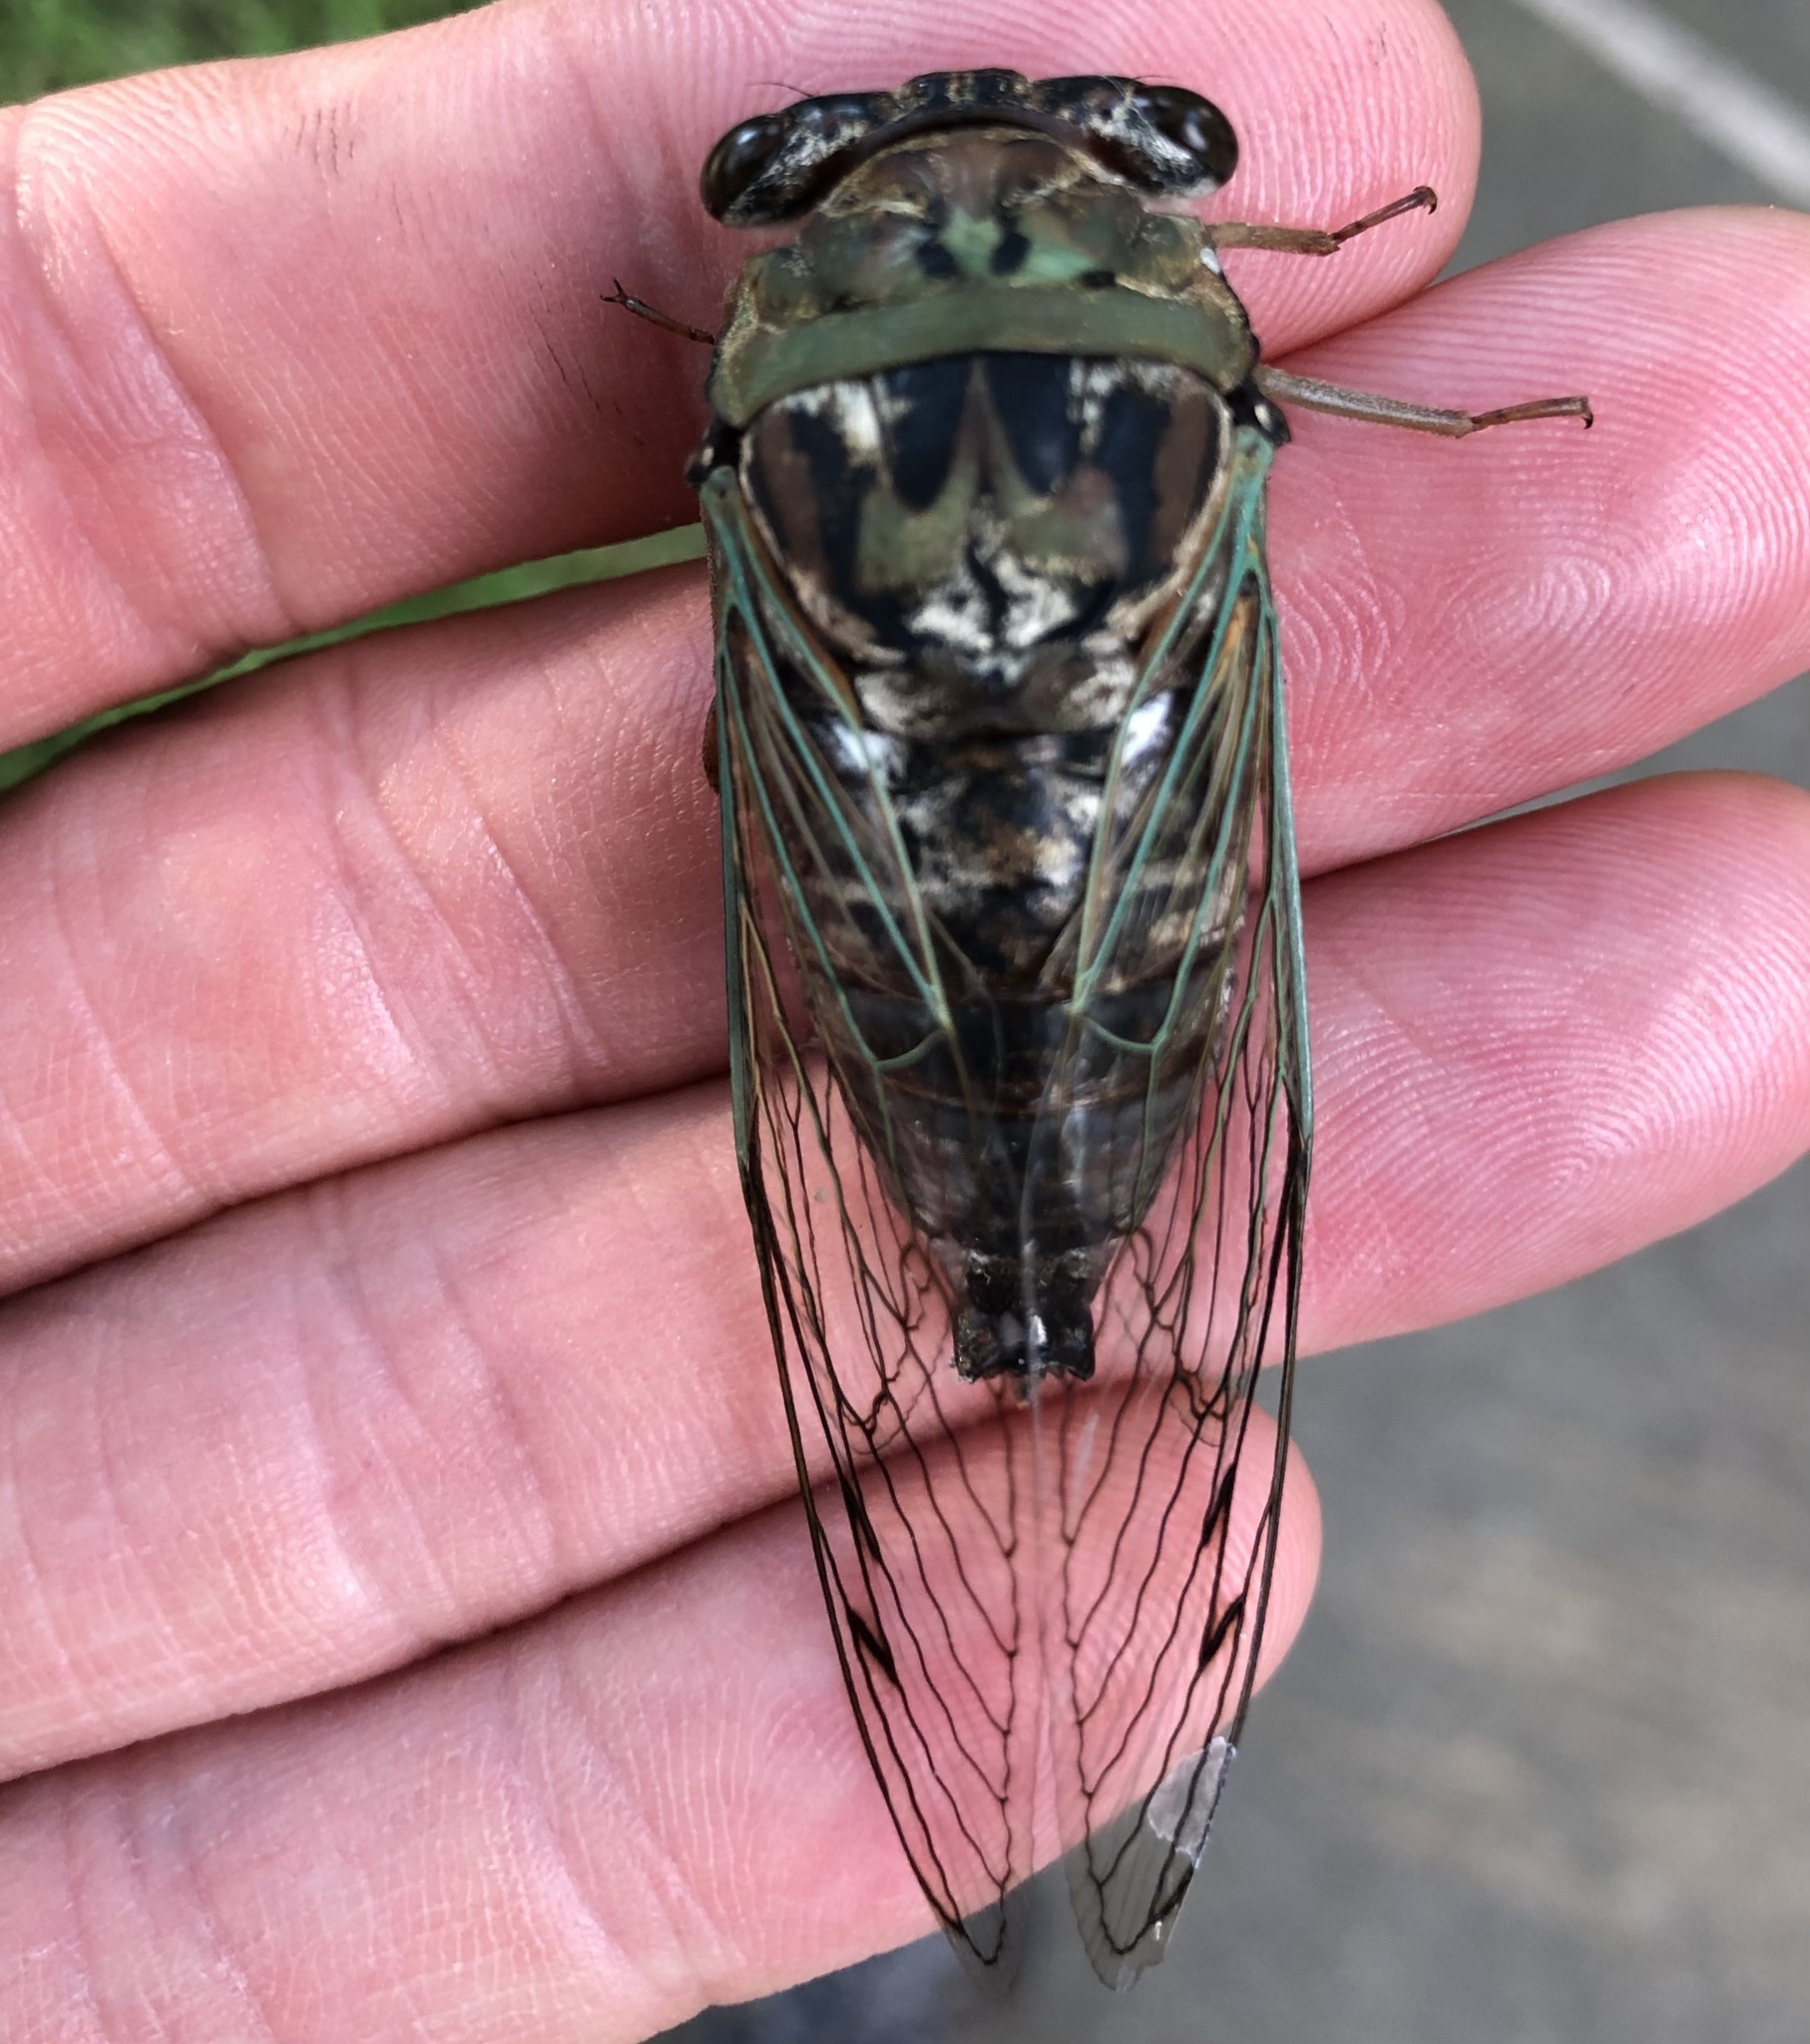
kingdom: Animalia
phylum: Arthropoda
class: Insecta
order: Hemiptera
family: Cicadidae
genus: Megatibicen
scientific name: Megatibicen resh
